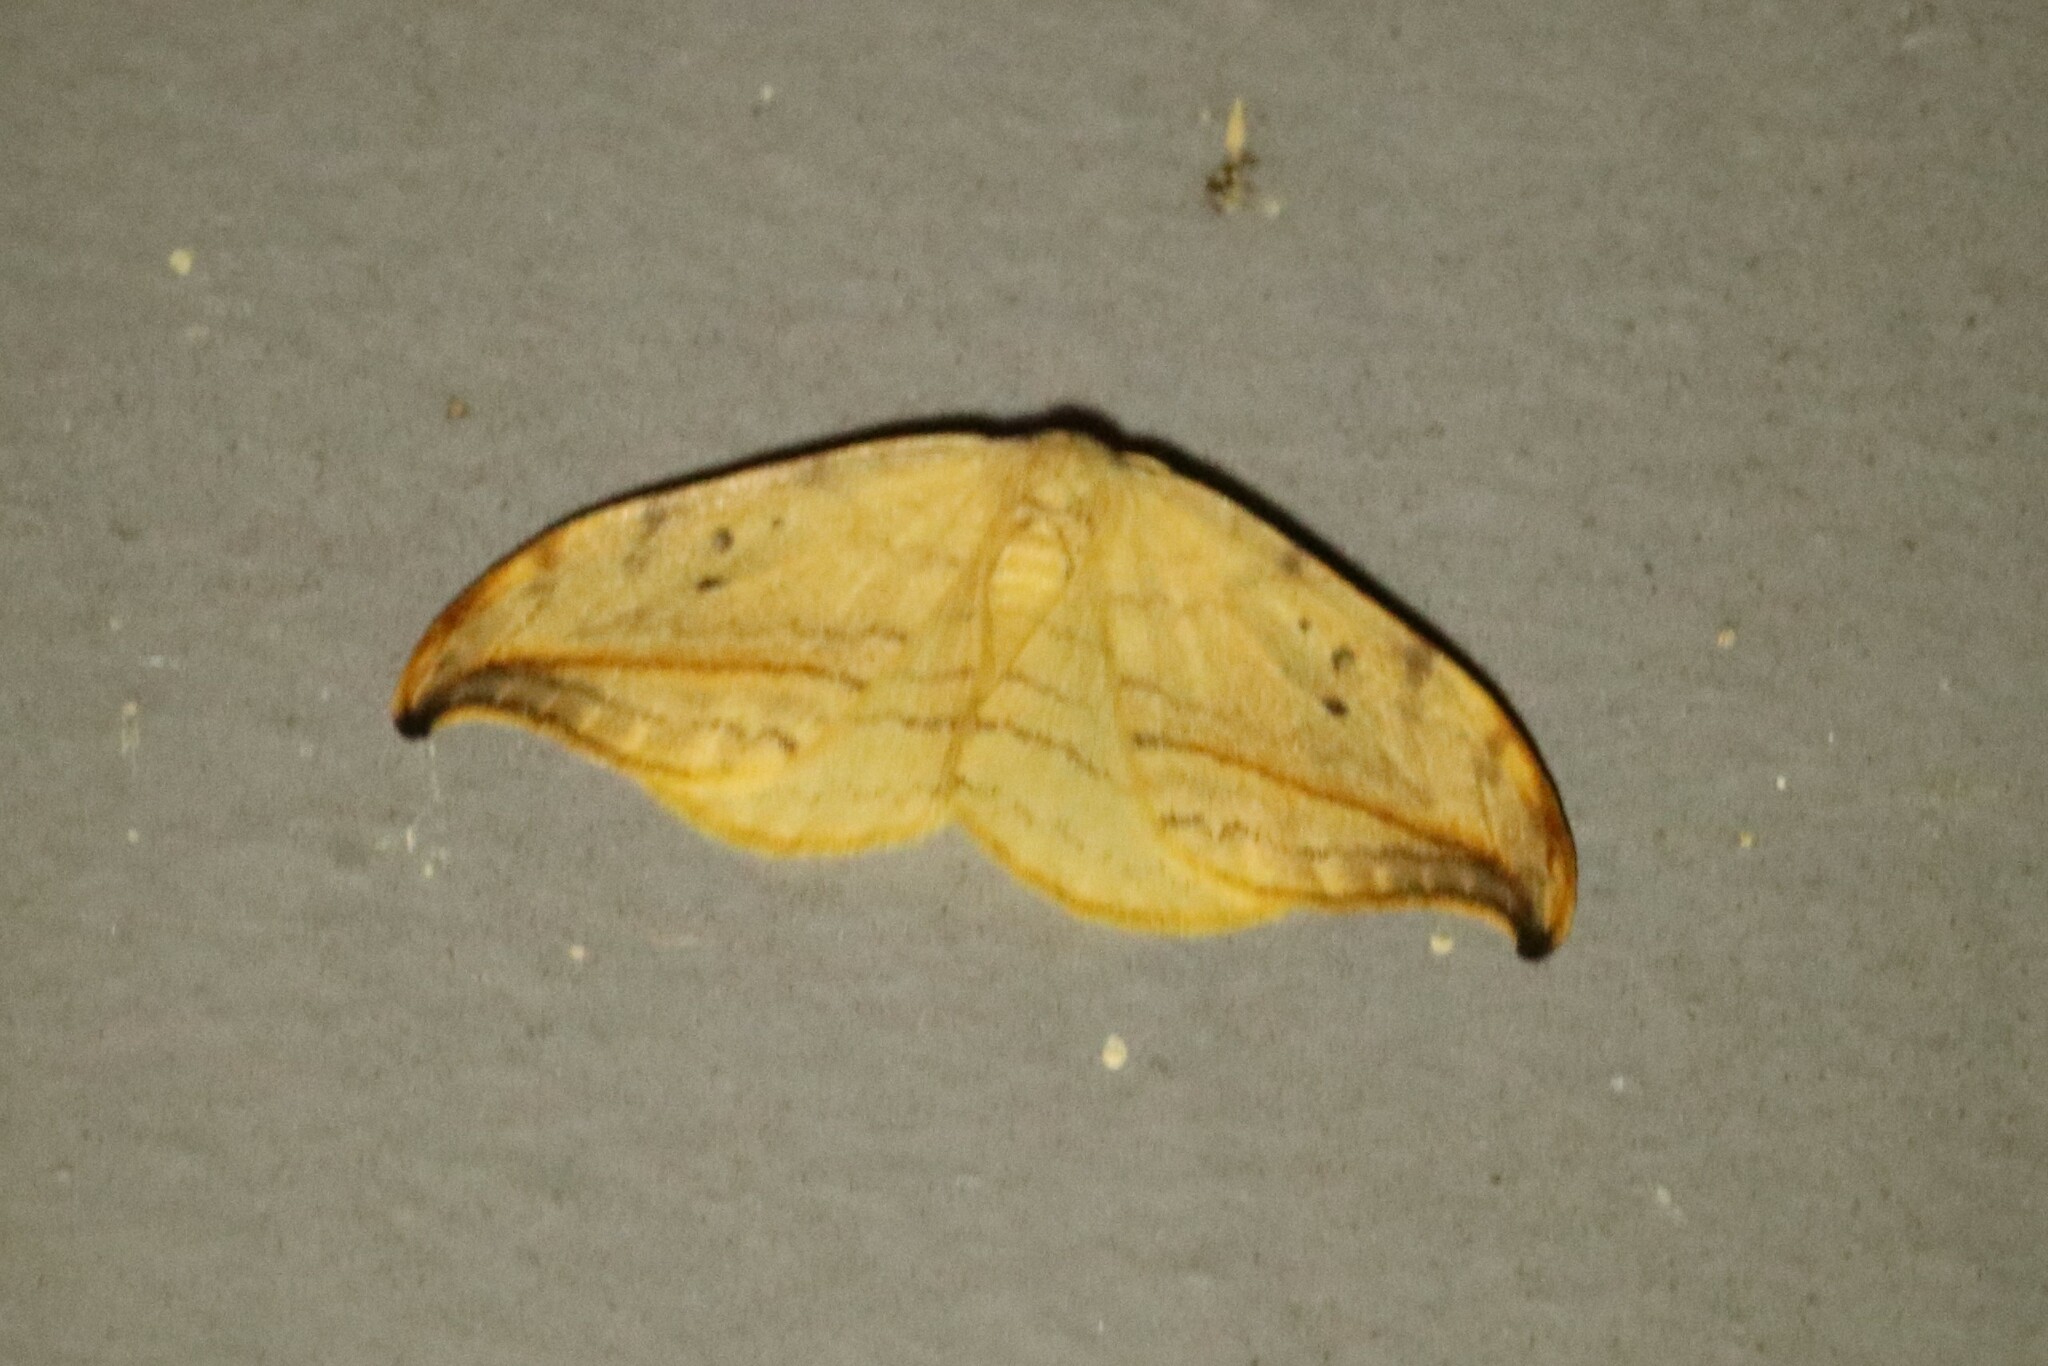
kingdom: Animalia
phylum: Arthropoda
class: Insecta
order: Lepidoptera
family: Drepanidae
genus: Drepana
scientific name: Drepana arcuata
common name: Arched hooktip moth
